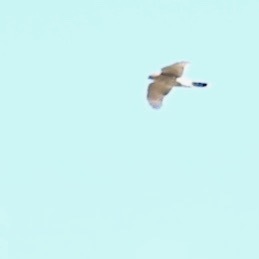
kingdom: Animalia
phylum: Chordata
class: Aves
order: Accipitriformes
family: Accipitridae
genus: Accipiter
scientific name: Accipiter cooperii
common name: Cooper's hawk
